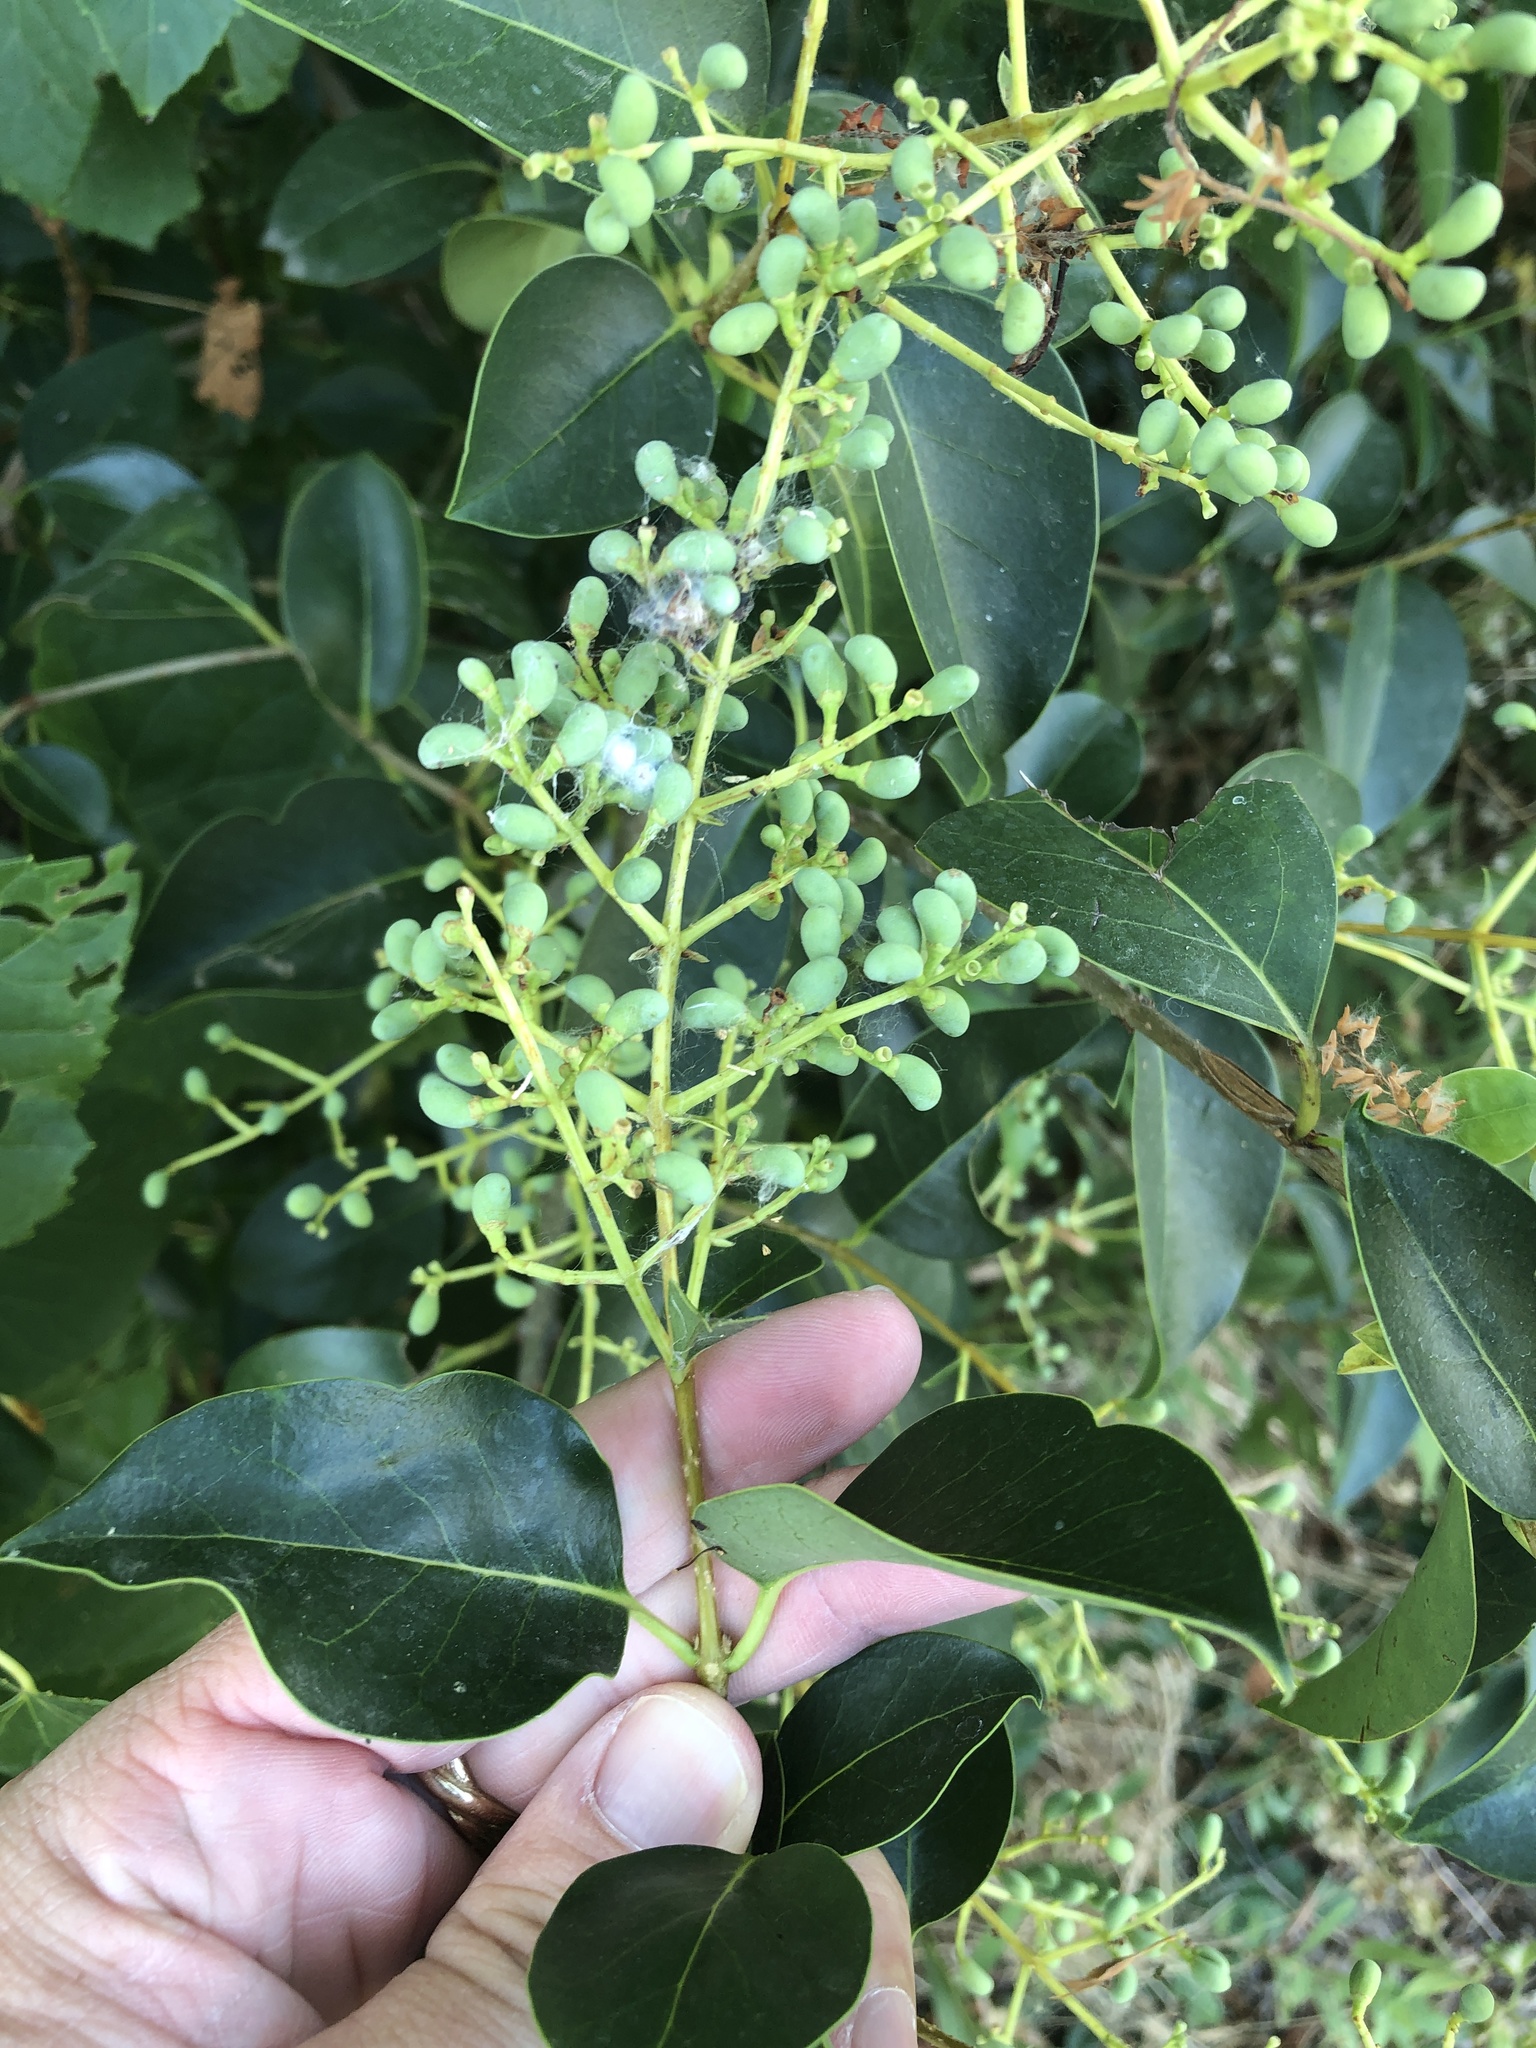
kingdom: Plantae
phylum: Tracheophyta
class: Magnoliopsida
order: Lamiales
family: Oleaceae
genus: Ligustrum
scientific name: Ligustrum lucidum
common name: Glossy privet
